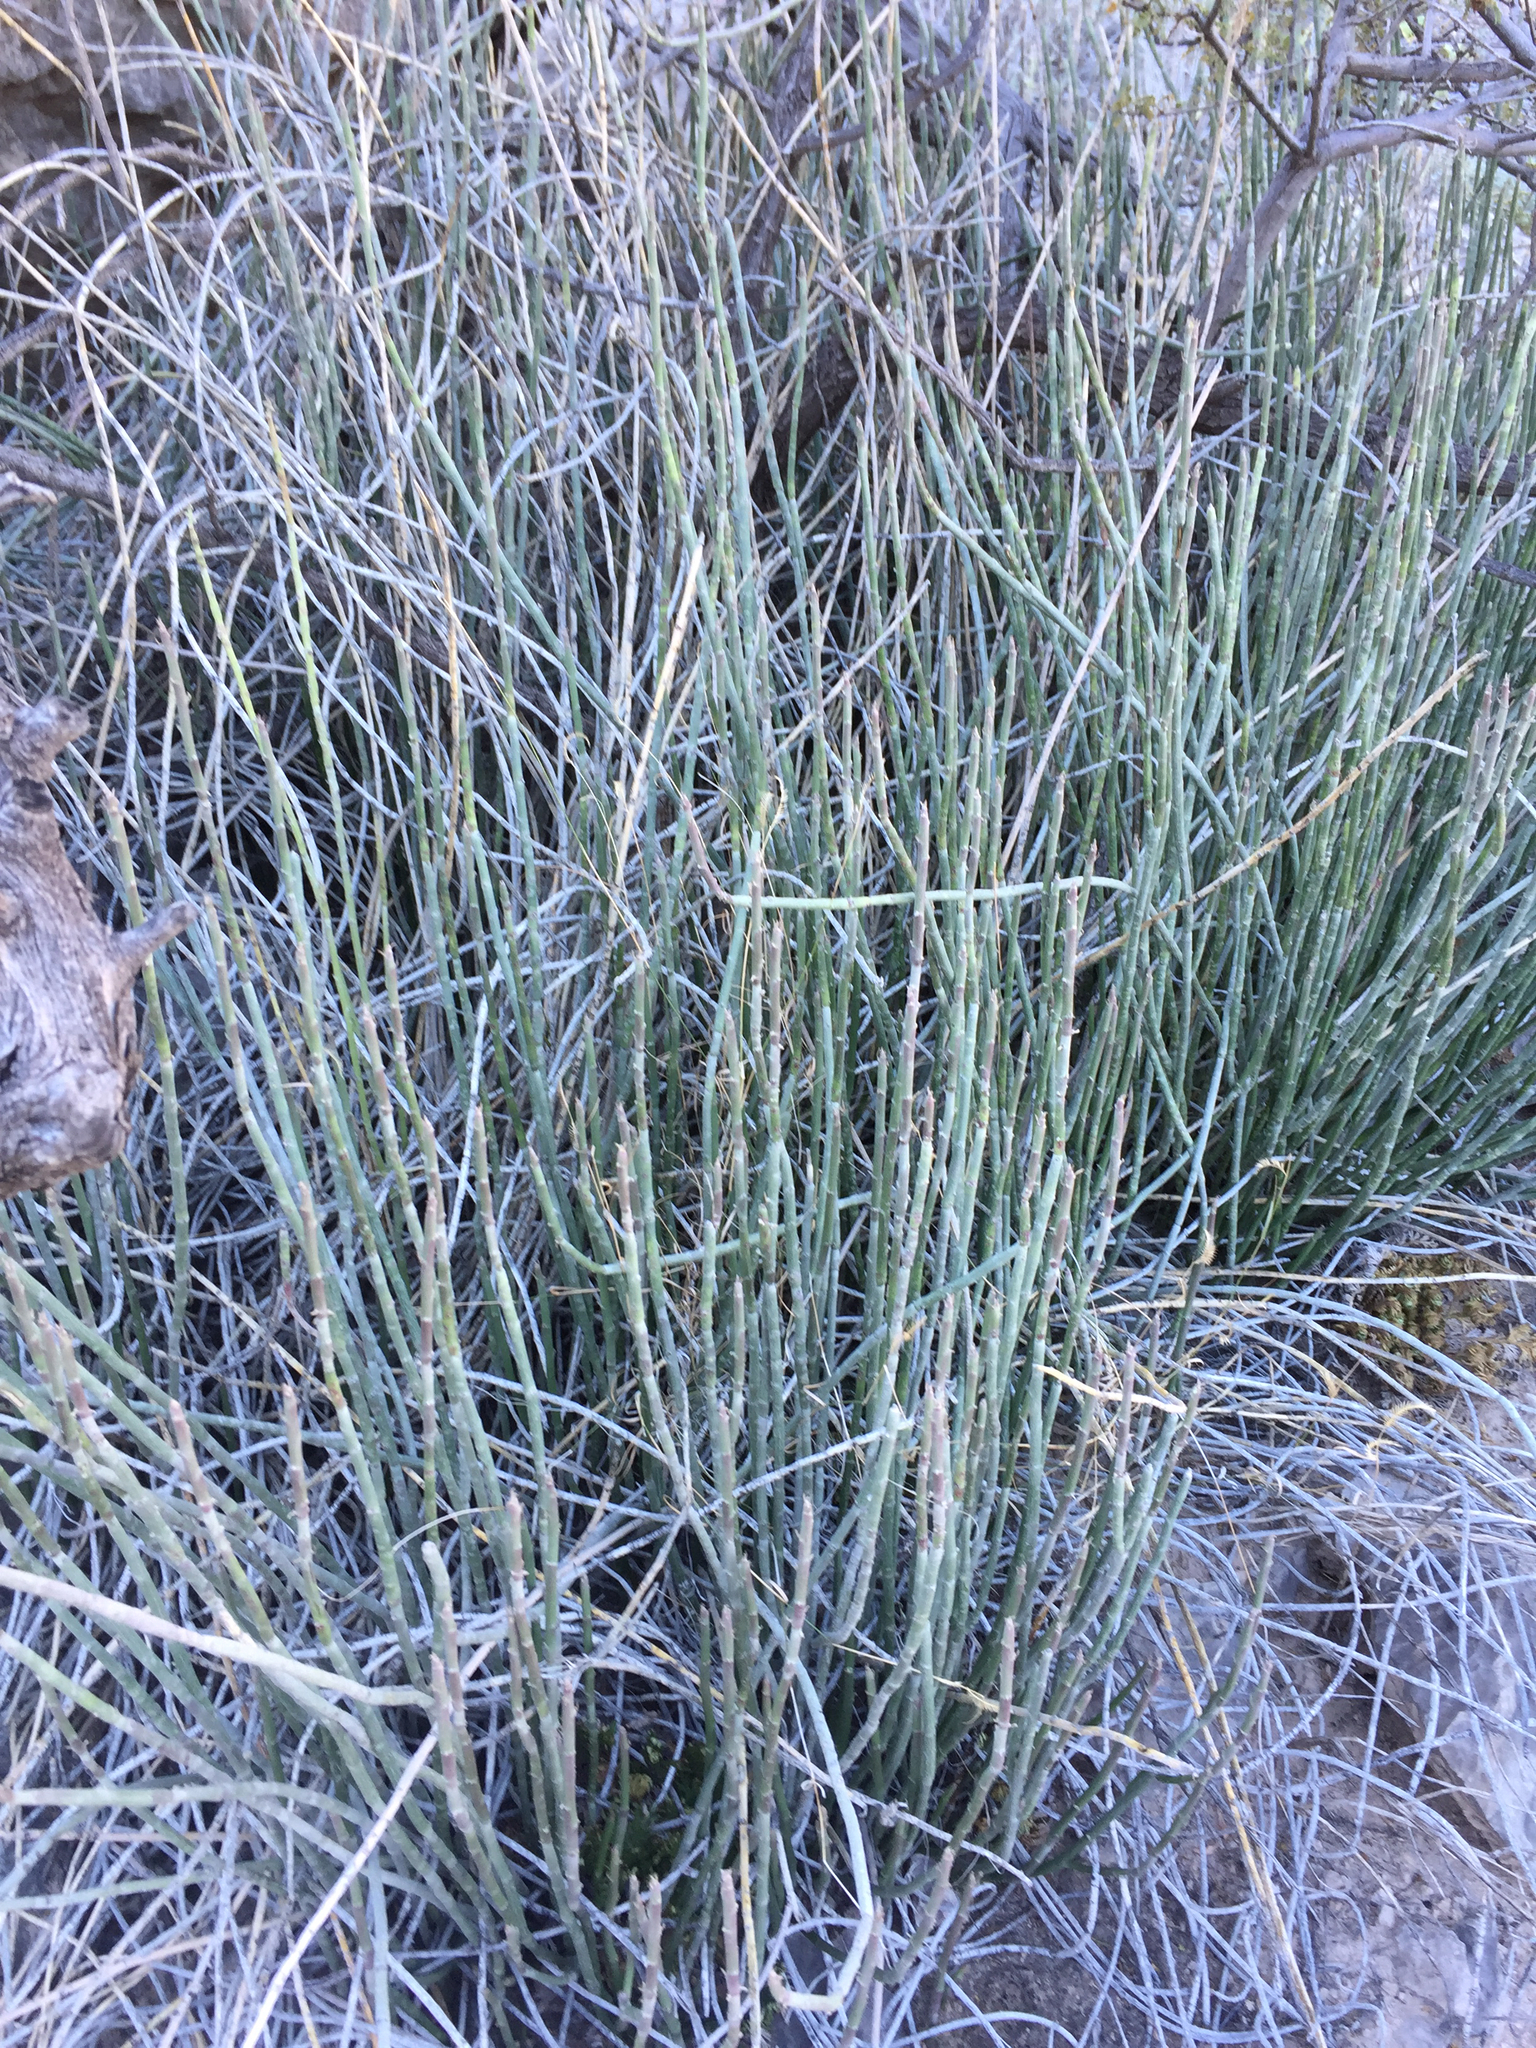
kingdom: Plantae
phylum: Tracheophyta
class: Magnoliopsida
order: Malpighiales
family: Euphorbiaceae
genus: Euphorbia
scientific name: Euphorbia antisyphilitica
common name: Candelilla
